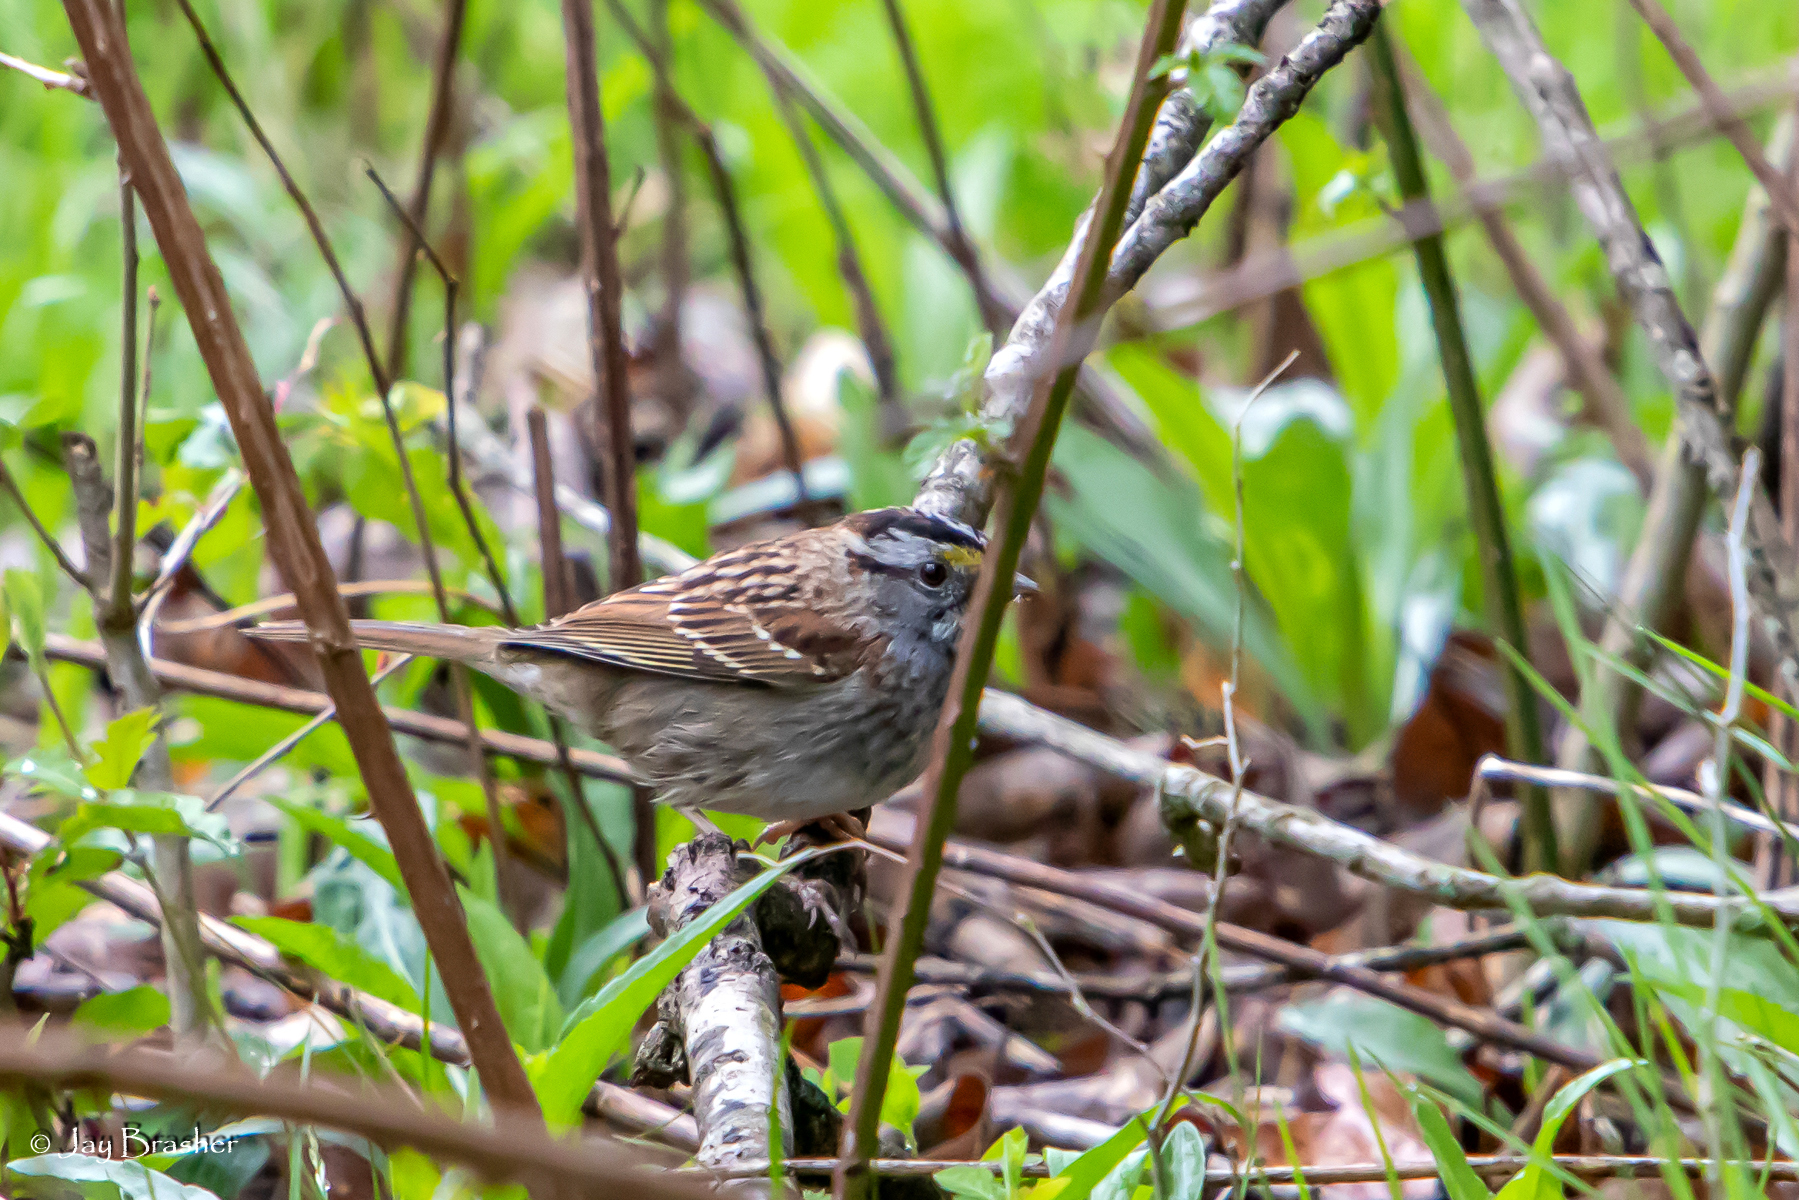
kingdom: Animalia
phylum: Chordata
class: Aves
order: Passeriformes
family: Passerellidae
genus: Zonotrichia
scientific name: Zonotrichia albicollis
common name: White-throated sparrow
